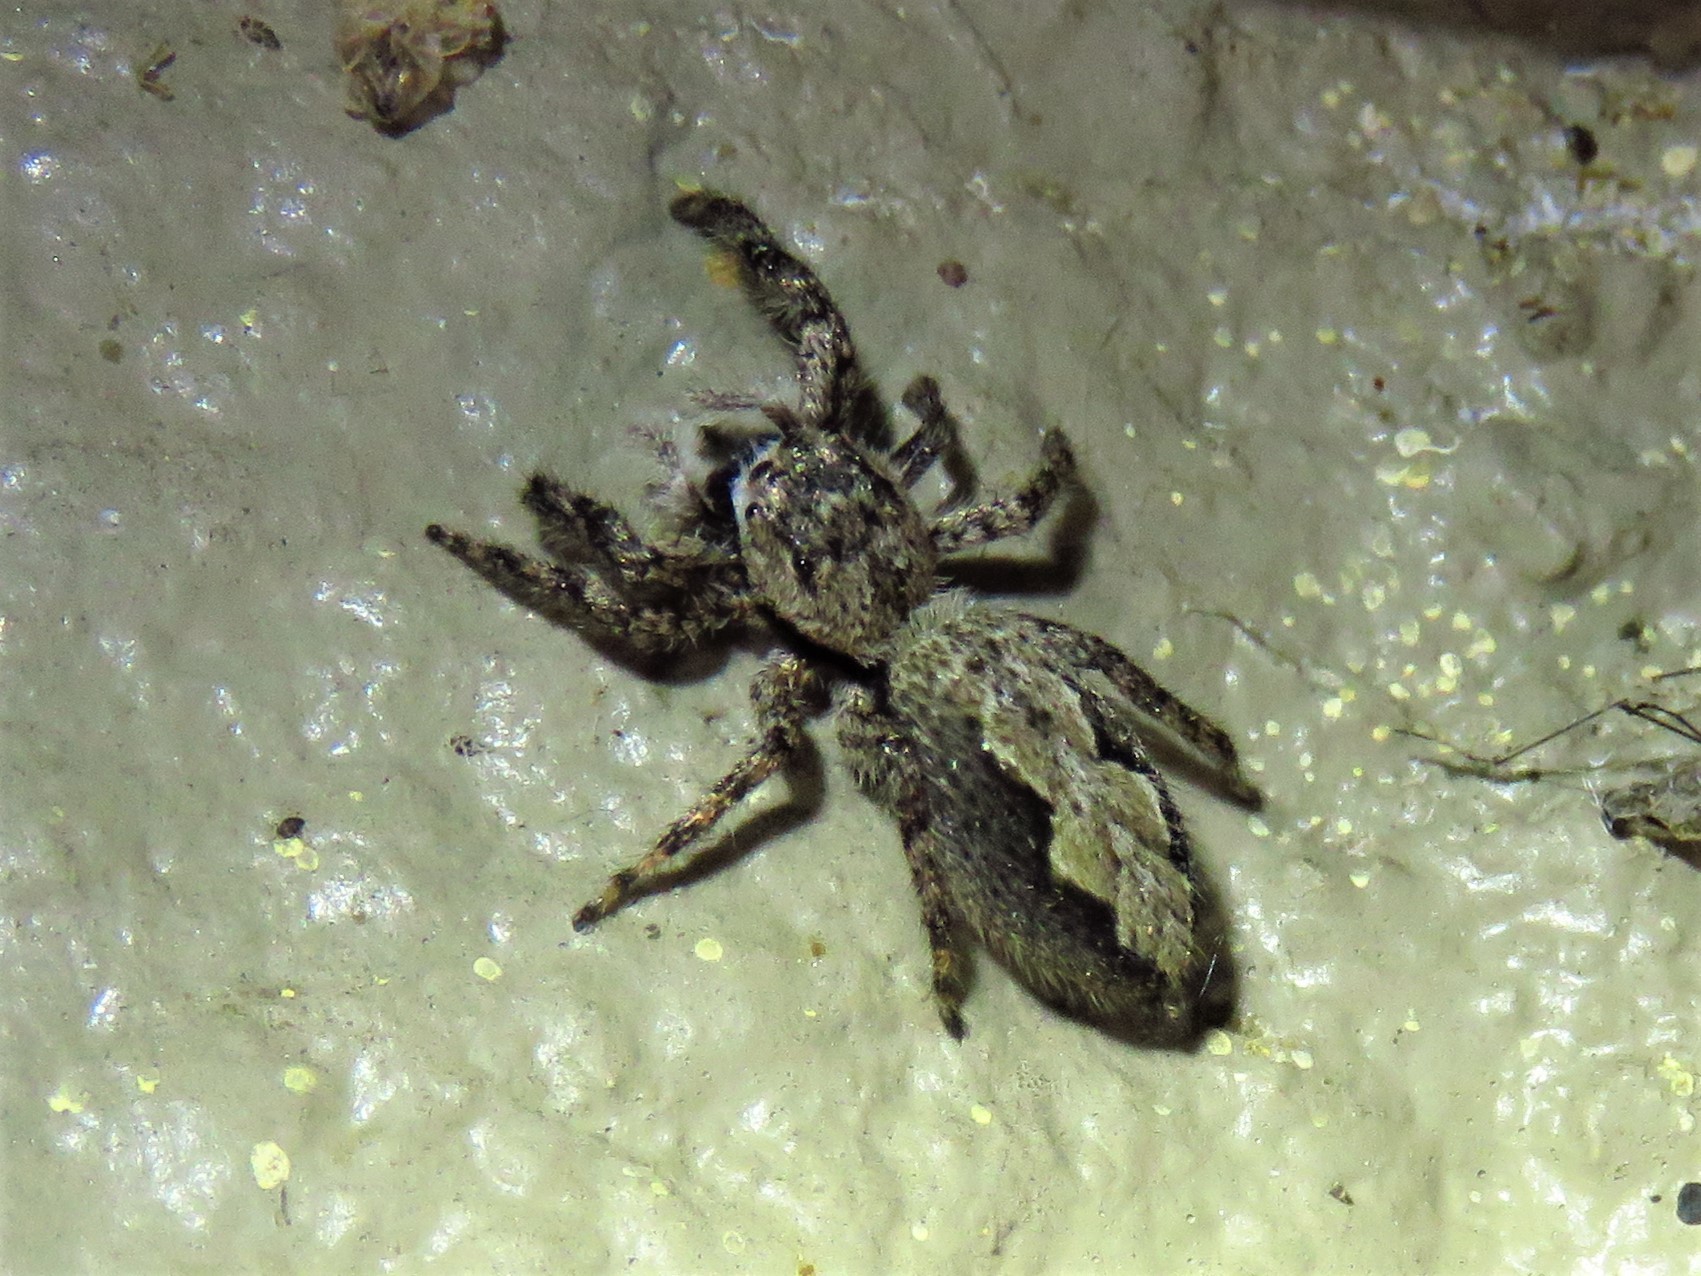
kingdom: Animalia
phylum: Arthropoda
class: Arachnida
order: Araneae
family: Salticidae
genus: Platycryptus
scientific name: Platycryptus undatus
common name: Tan jumping spider
